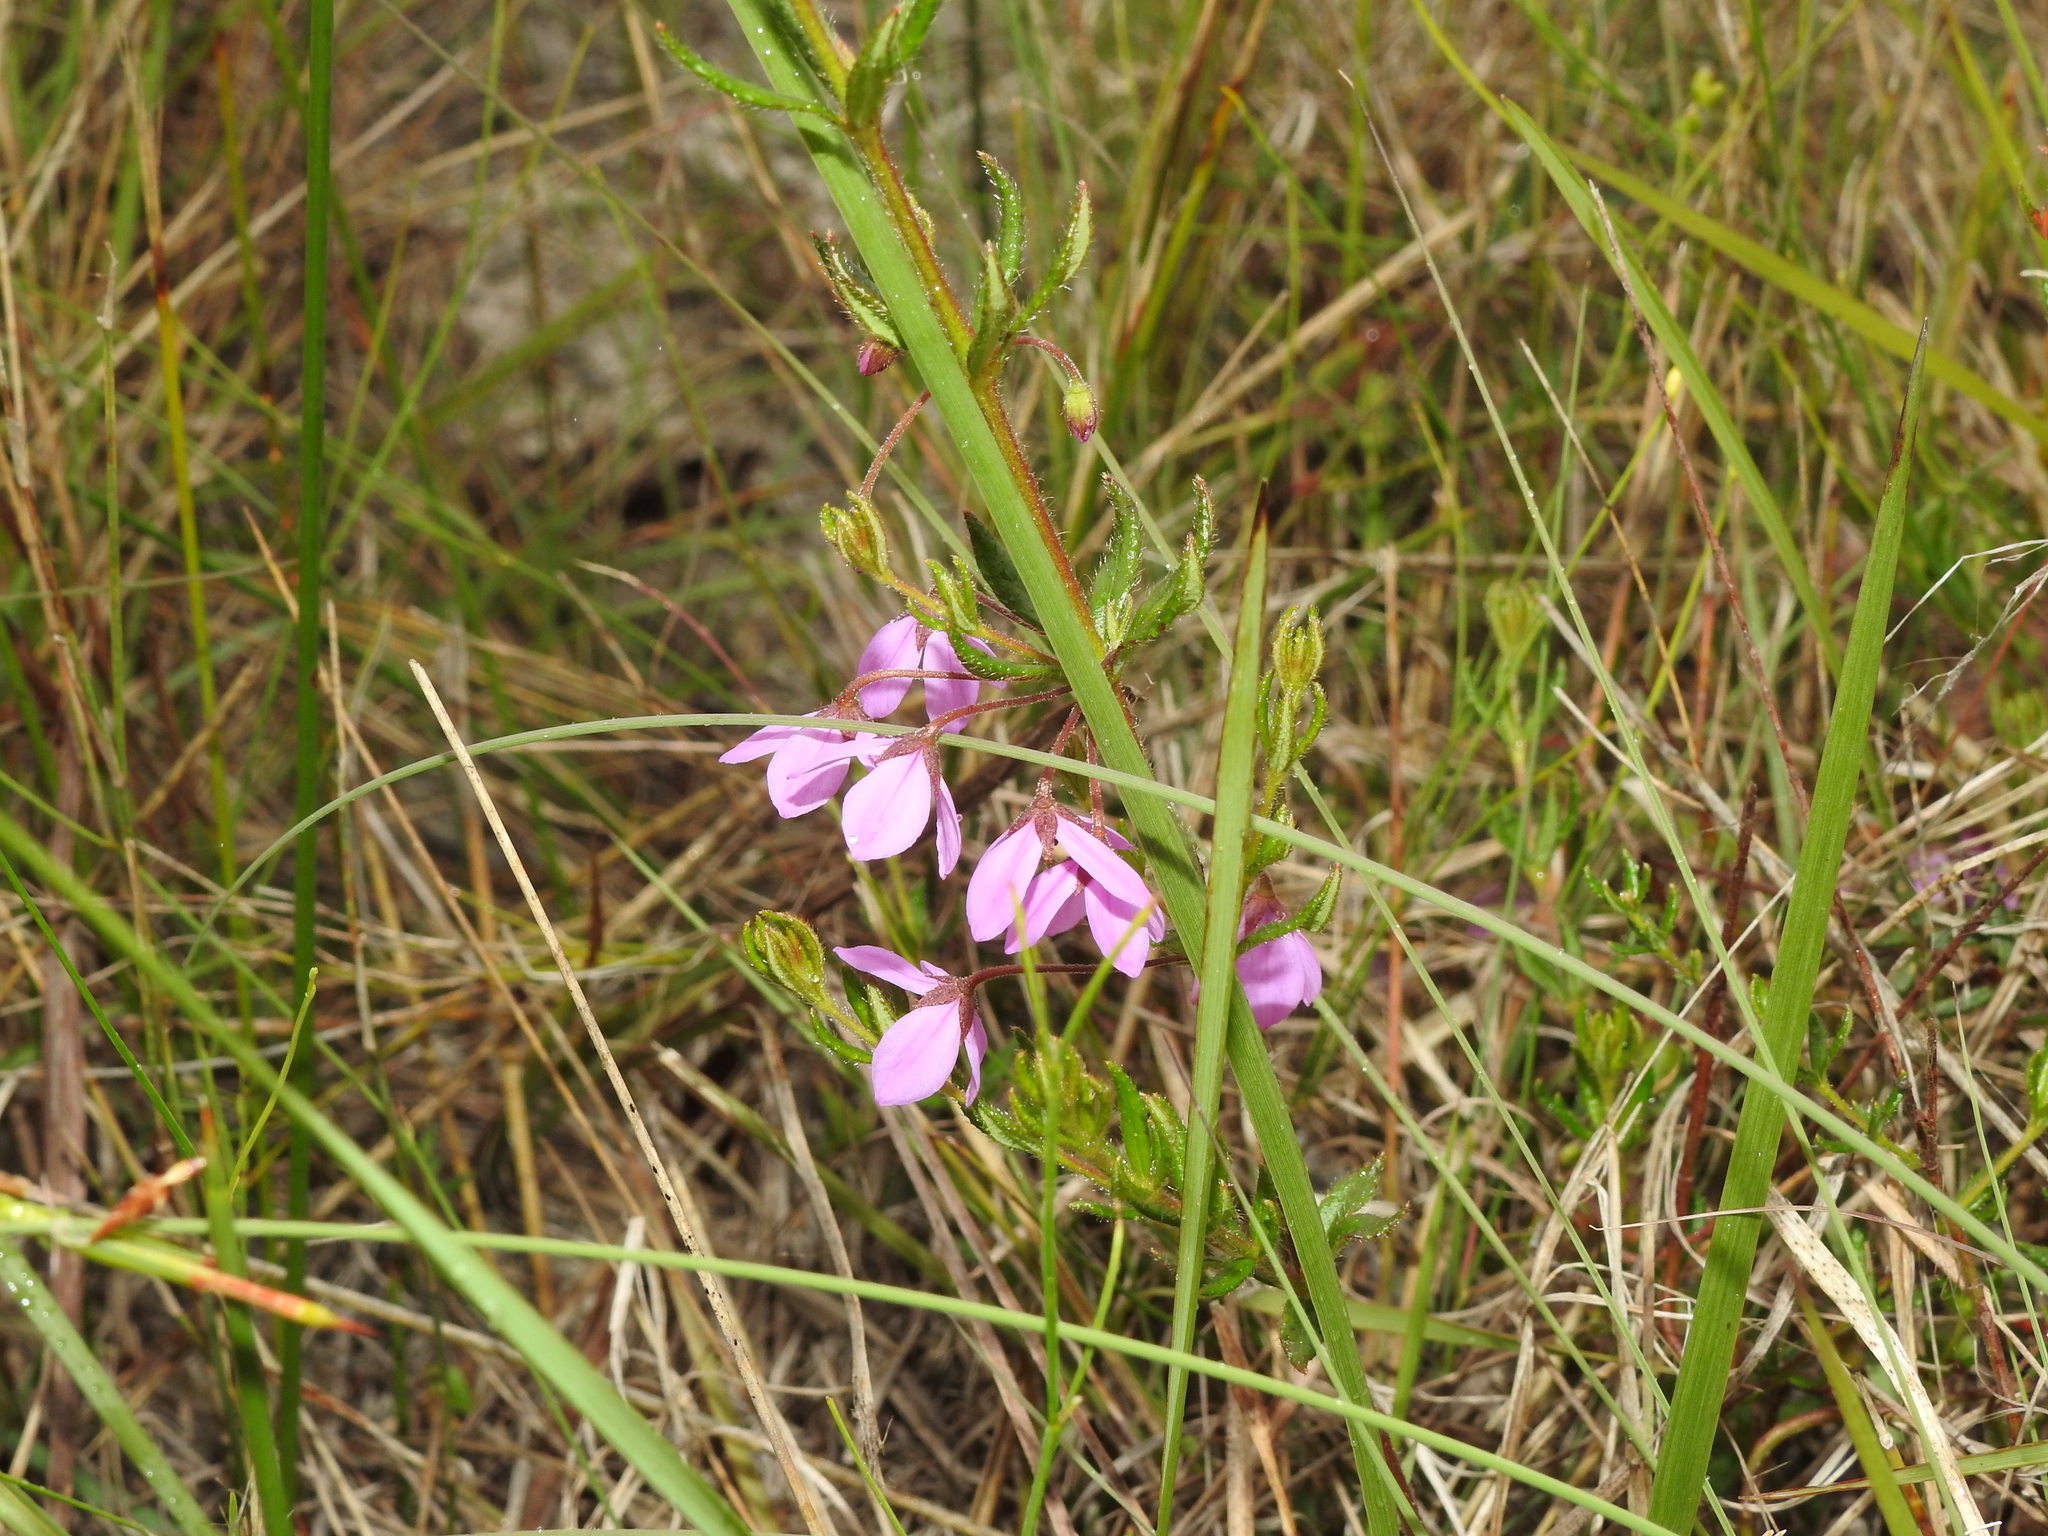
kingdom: Plantae
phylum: Tracheophyta
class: Magnoliopsida
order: Oxalidales
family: Elaeocarpaceae
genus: Tetratheca
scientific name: Tetratheca thymifolia
